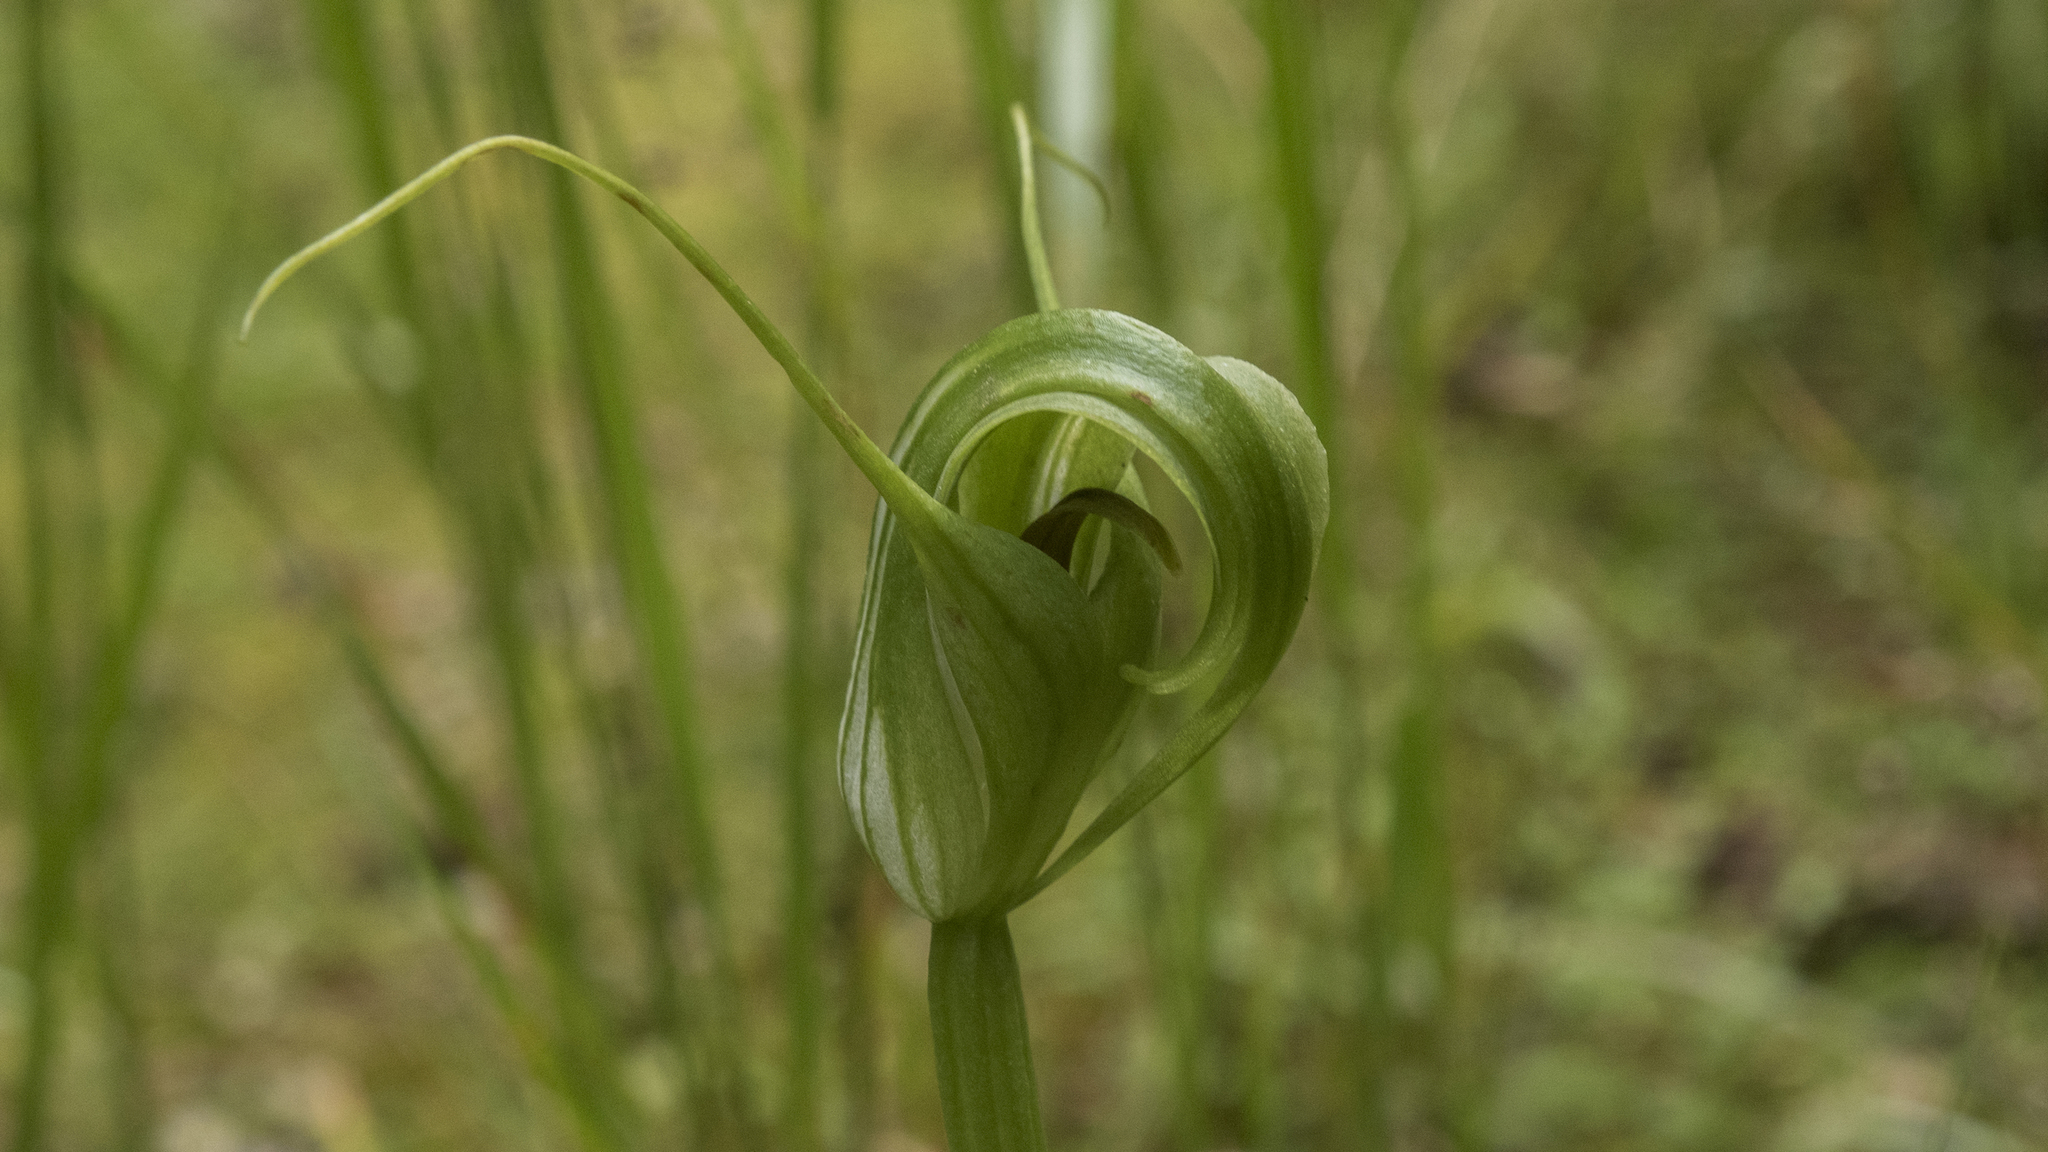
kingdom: Plantae
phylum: Tracheophyta
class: Liliopsida
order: Asparagales
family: Orchidaceae
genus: Pterostylis
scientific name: Pterostylis oliveri
